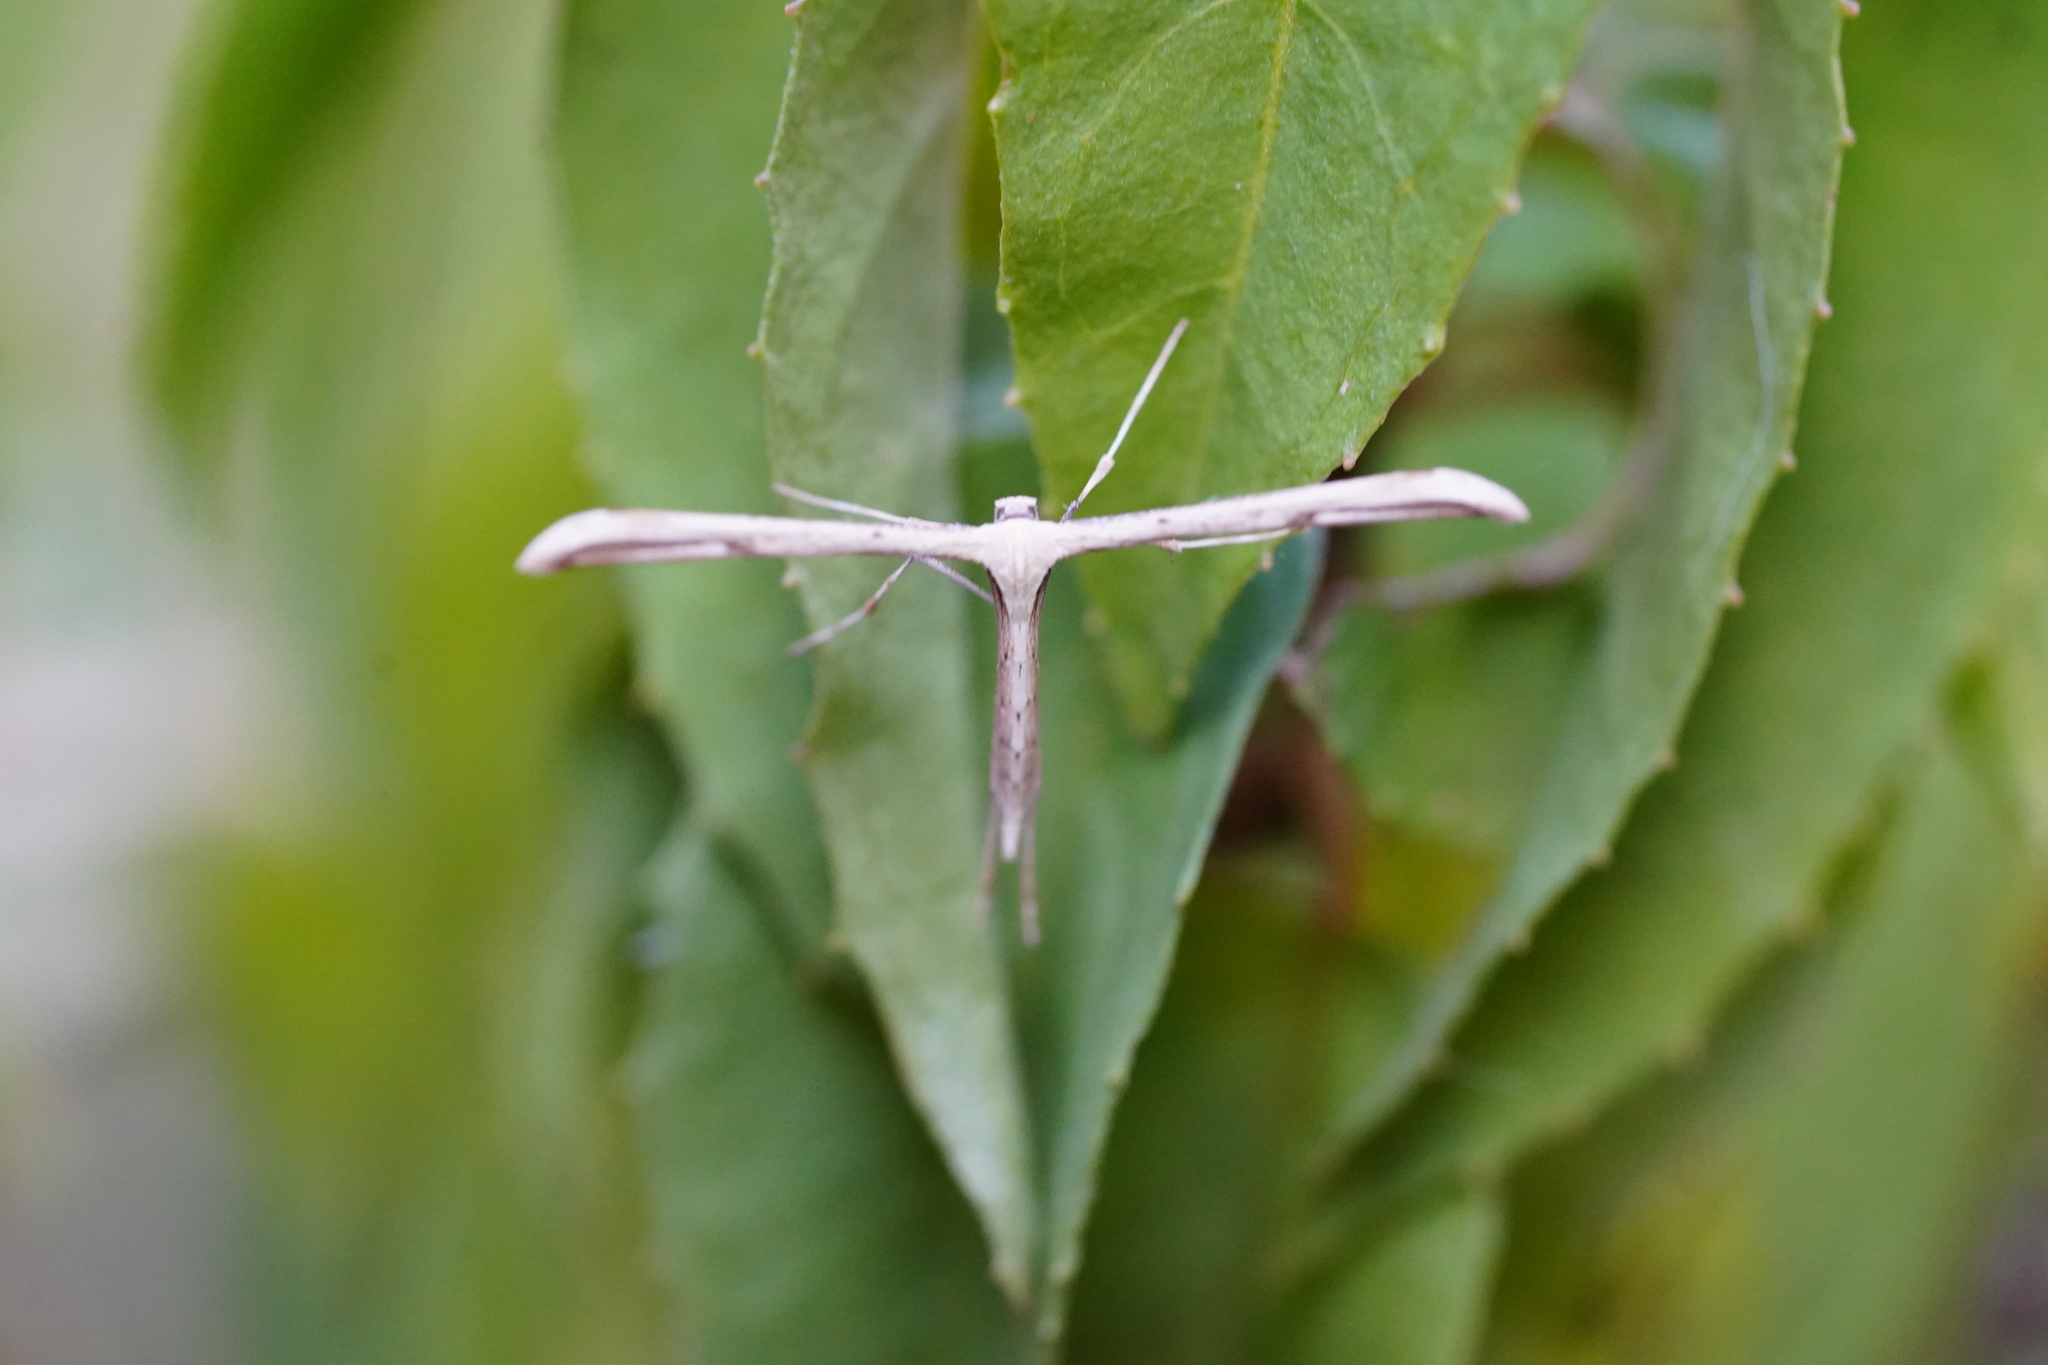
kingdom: Animalia
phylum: Arthropoda
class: Insecta
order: Lepidoptera
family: Pterophoridae
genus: Emmelina
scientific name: Emmelina monodactyla
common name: Common plume
